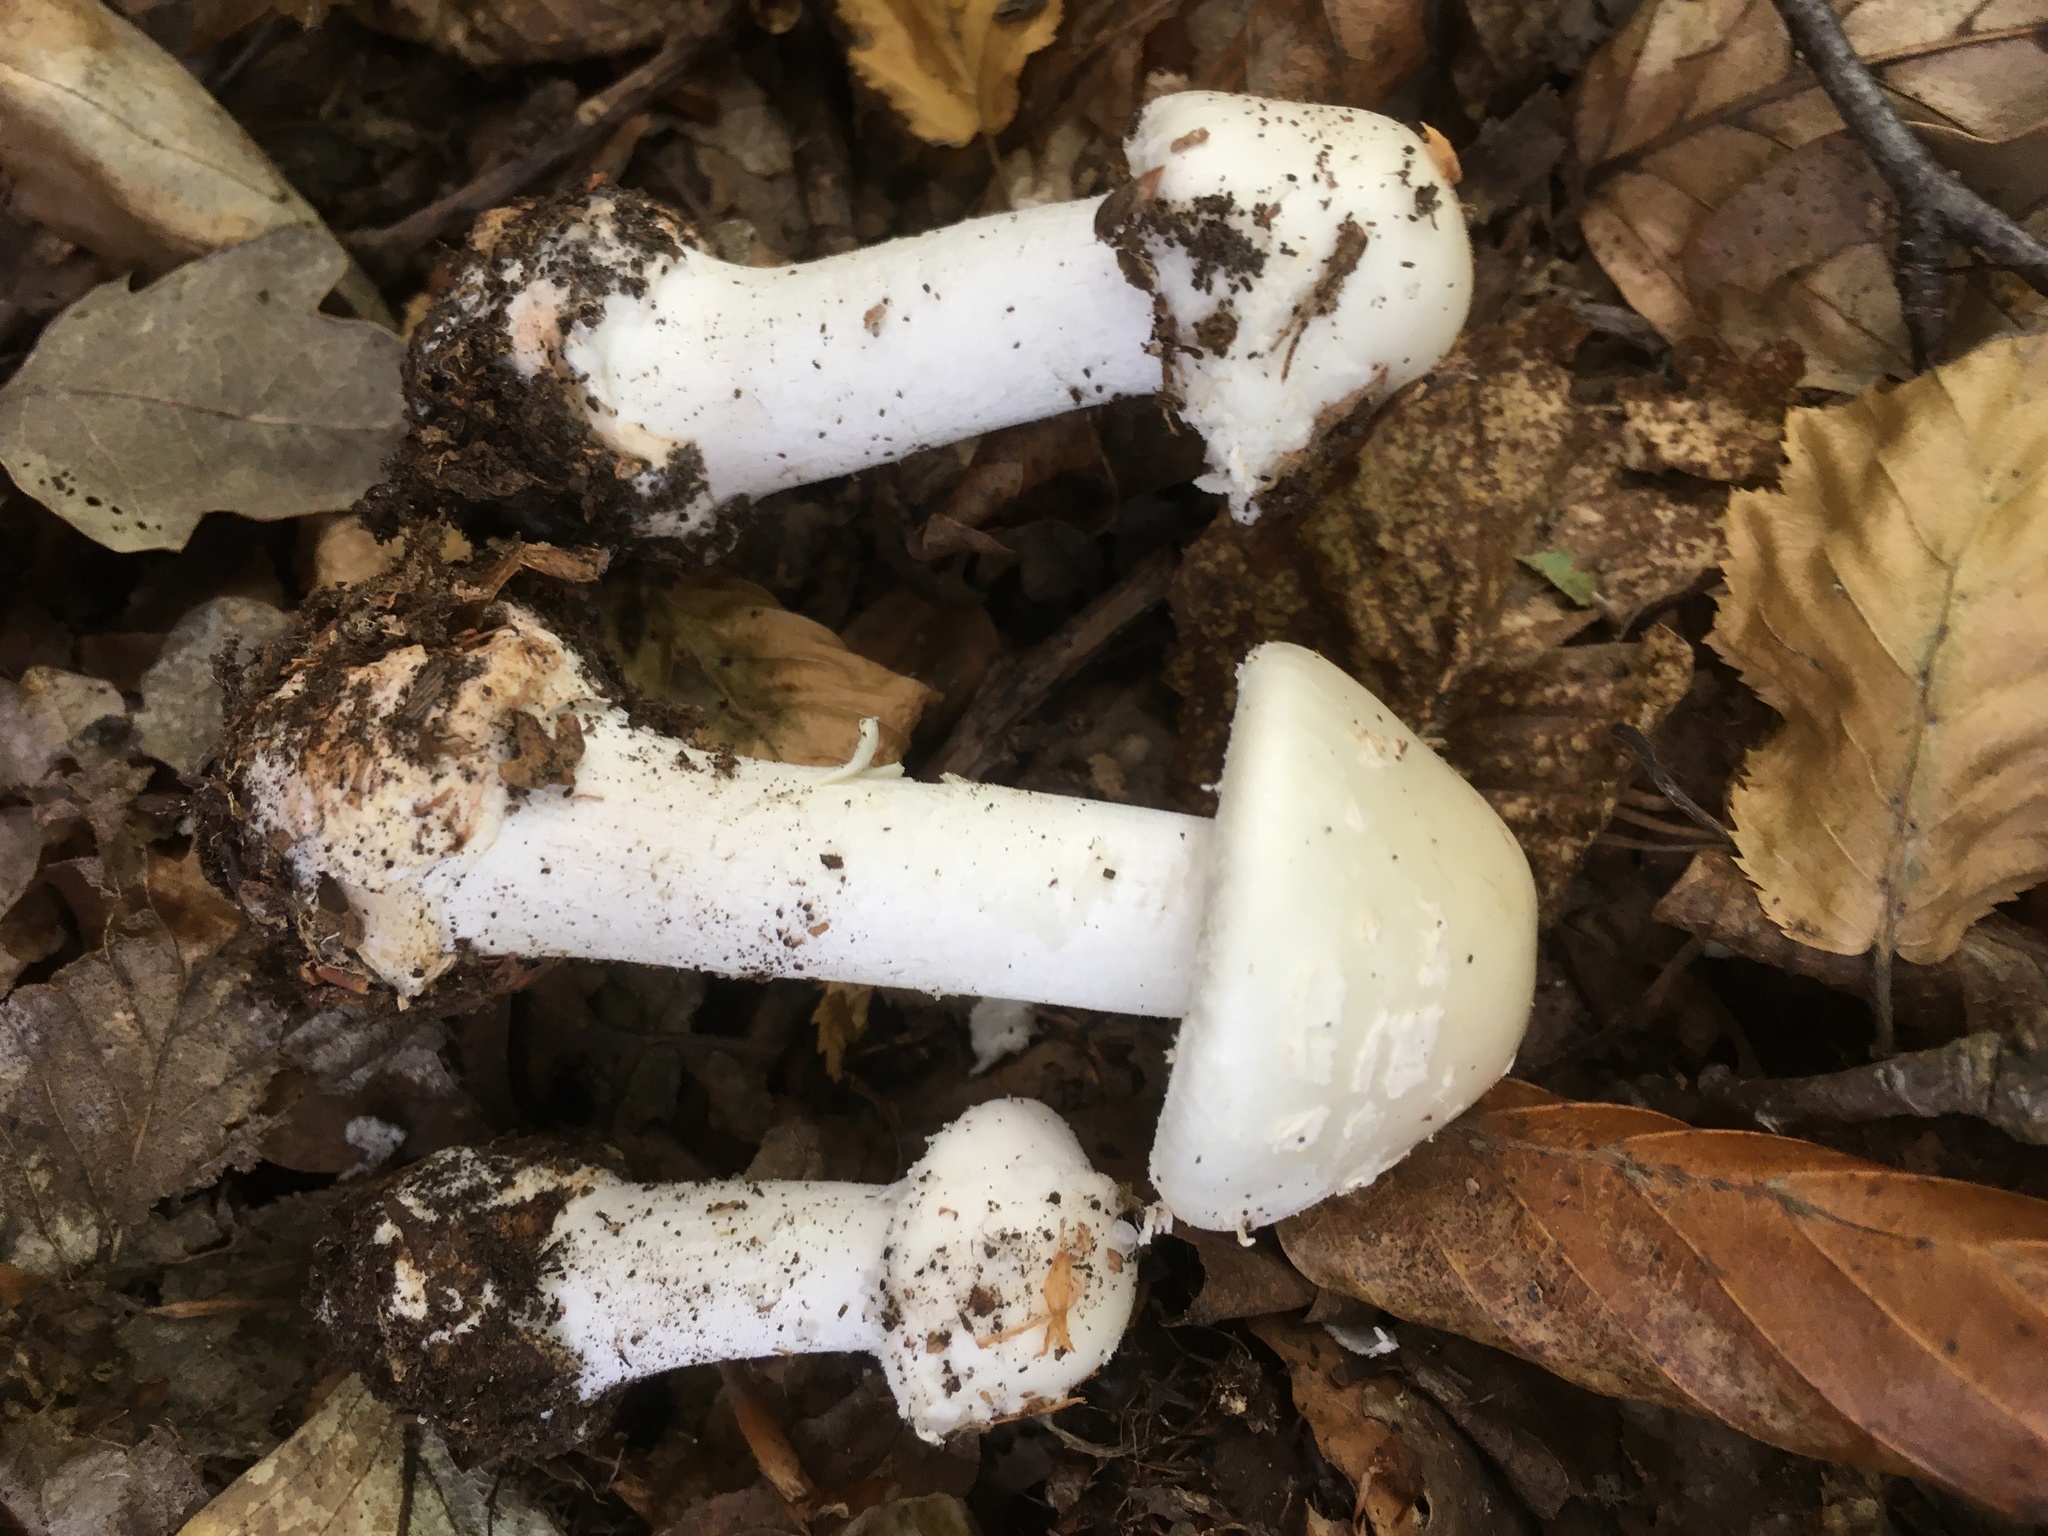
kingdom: Fungi
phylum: Basidiomycota
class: Agaricomycetes
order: Agaricales
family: Amanitaceae
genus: Amanita
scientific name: Amanita citrina
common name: False death-cap
